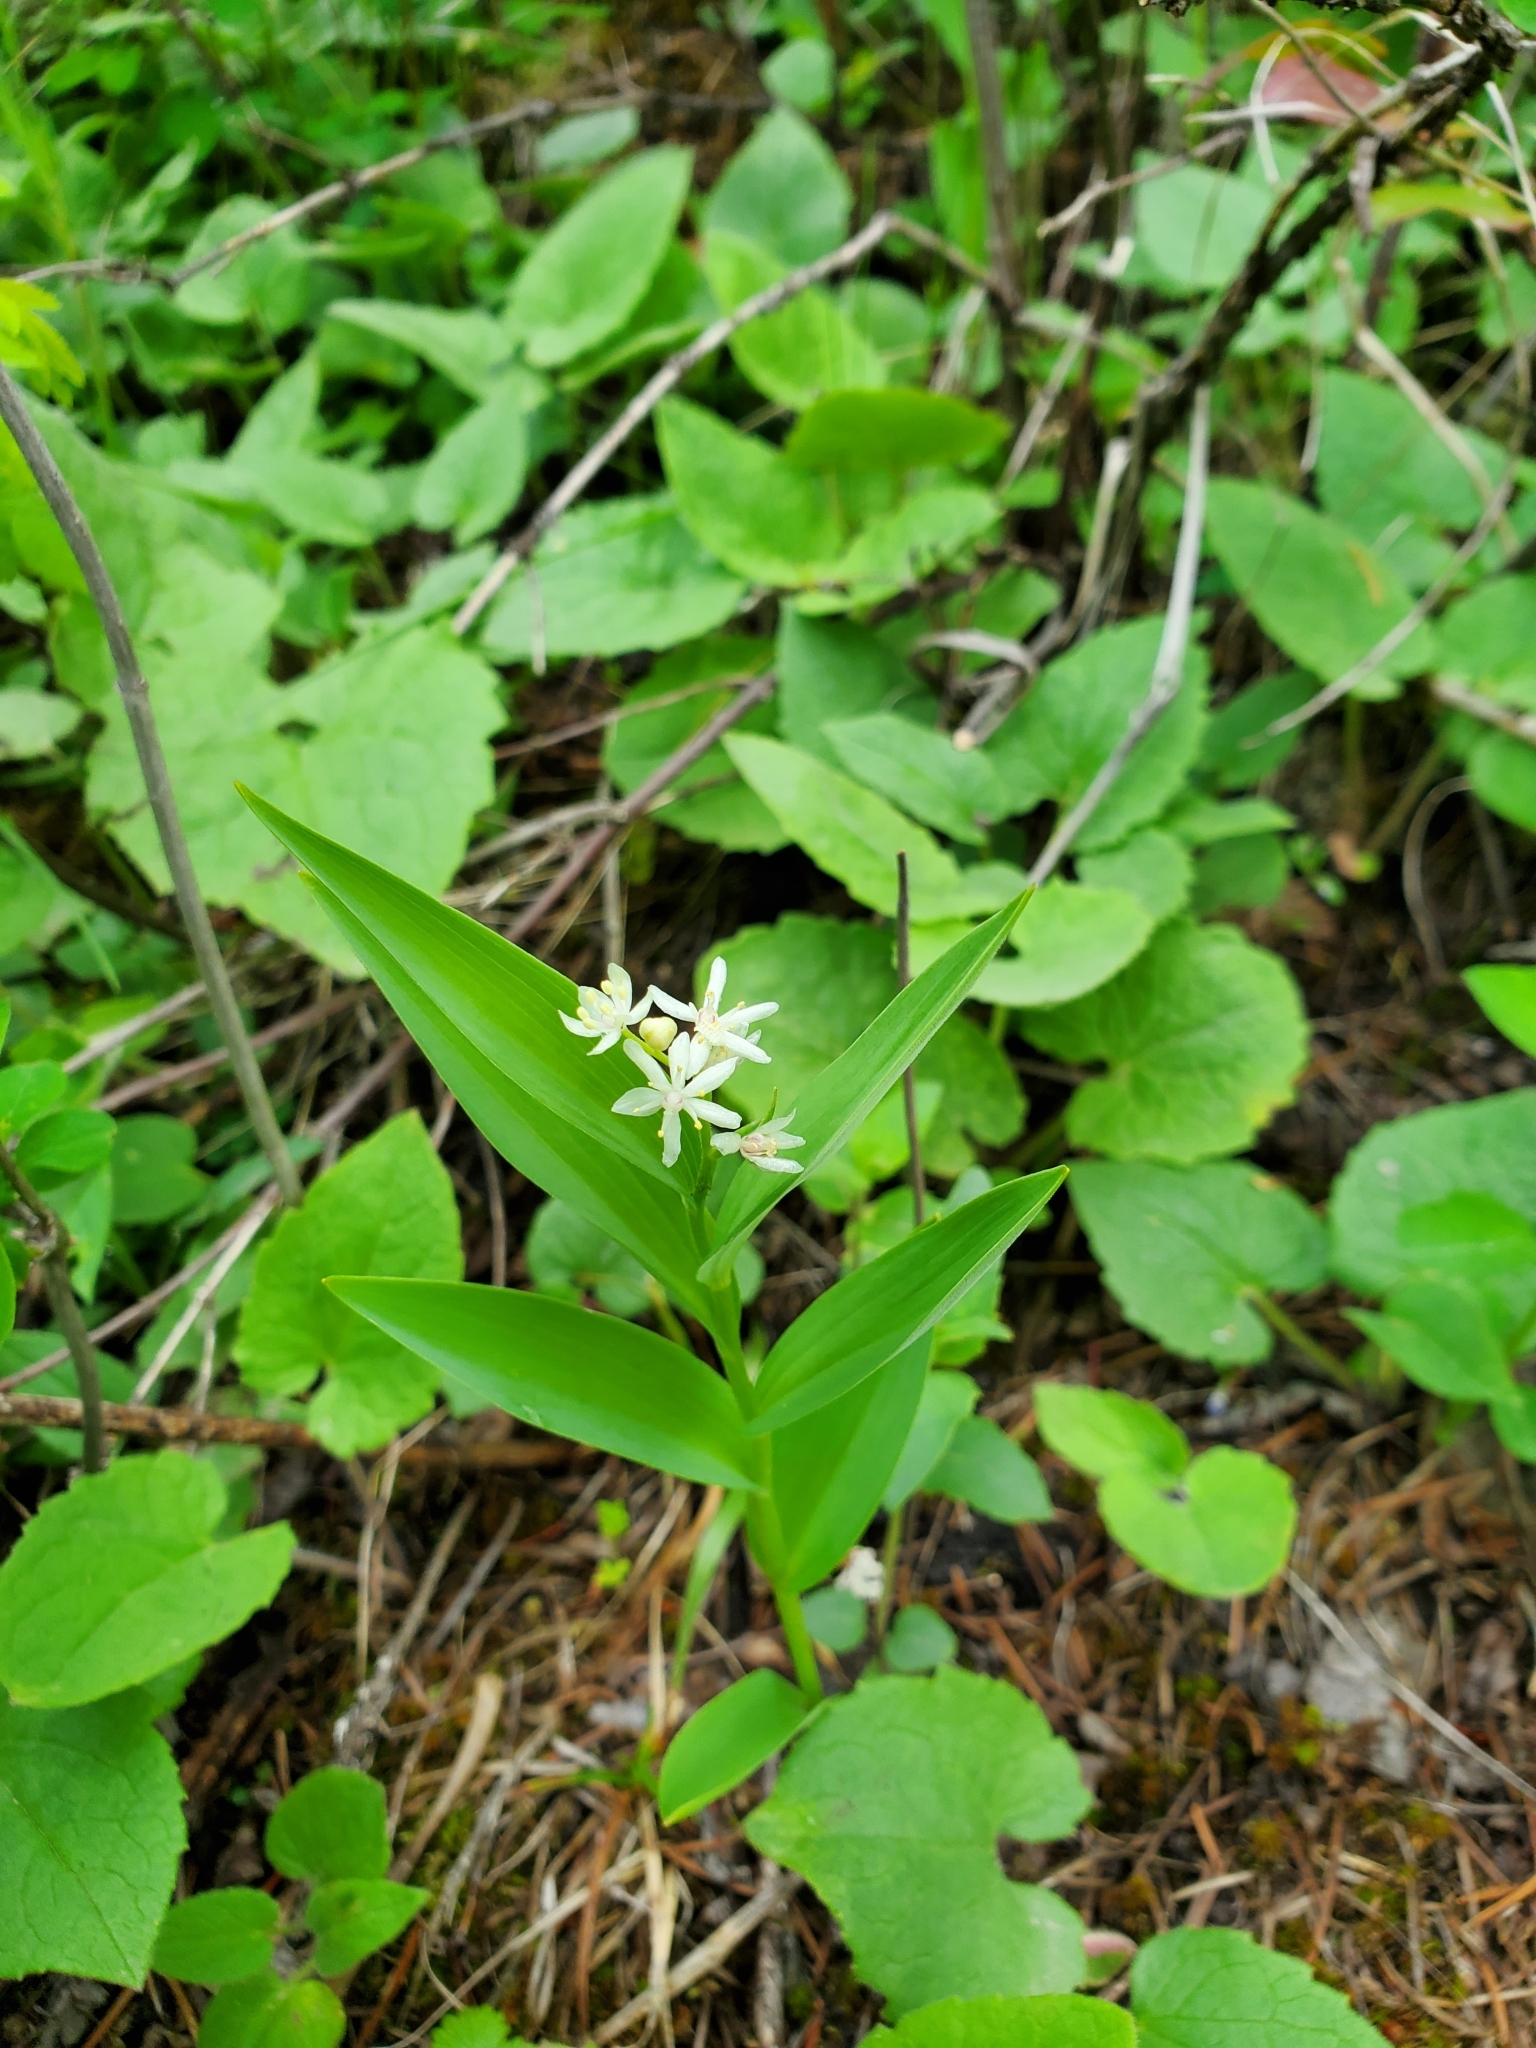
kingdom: Plantae
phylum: Tracheophyta
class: Liliopsida
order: Asparagales
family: Asparagaceae
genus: Maianthemum
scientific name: Maianthemum stellatum
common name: Little false solomon's seal
